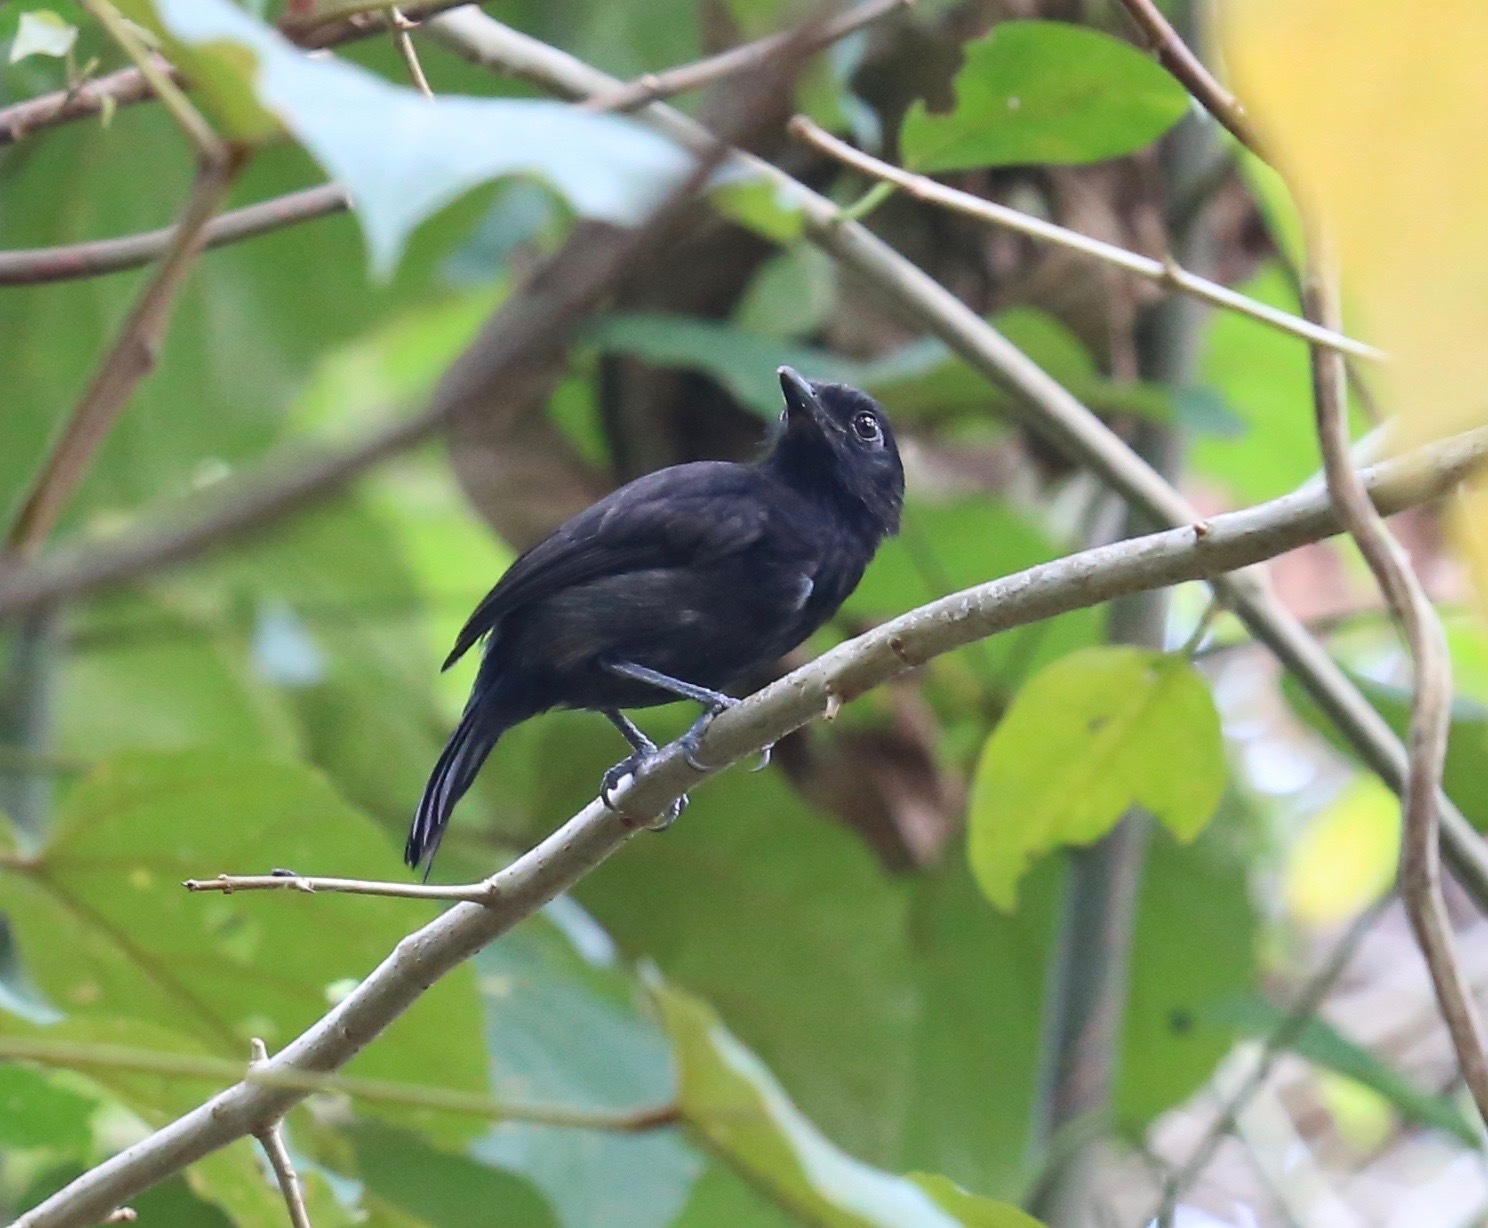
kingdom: Animalia
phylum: Chordata
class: Aves
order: Passeriformes
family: Thamnophilidae
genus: Thamnophilus
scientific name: Thamnophilus nigriceps
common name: Black antshrike
